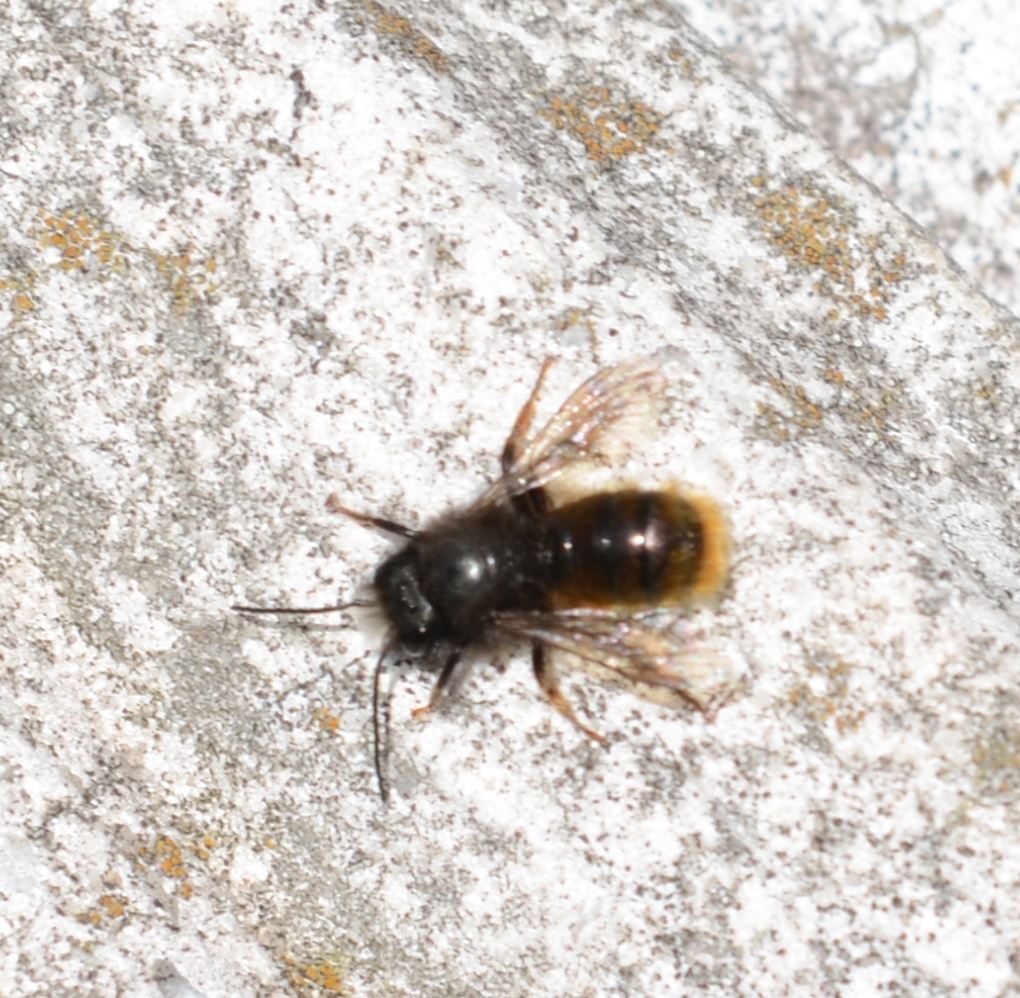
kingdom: Animalia
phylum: Arthropoda
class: Insecta
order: Hymenoptera
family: Megachilidae
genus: Osmia
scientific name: Osmia cornuta
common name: Mason bee
